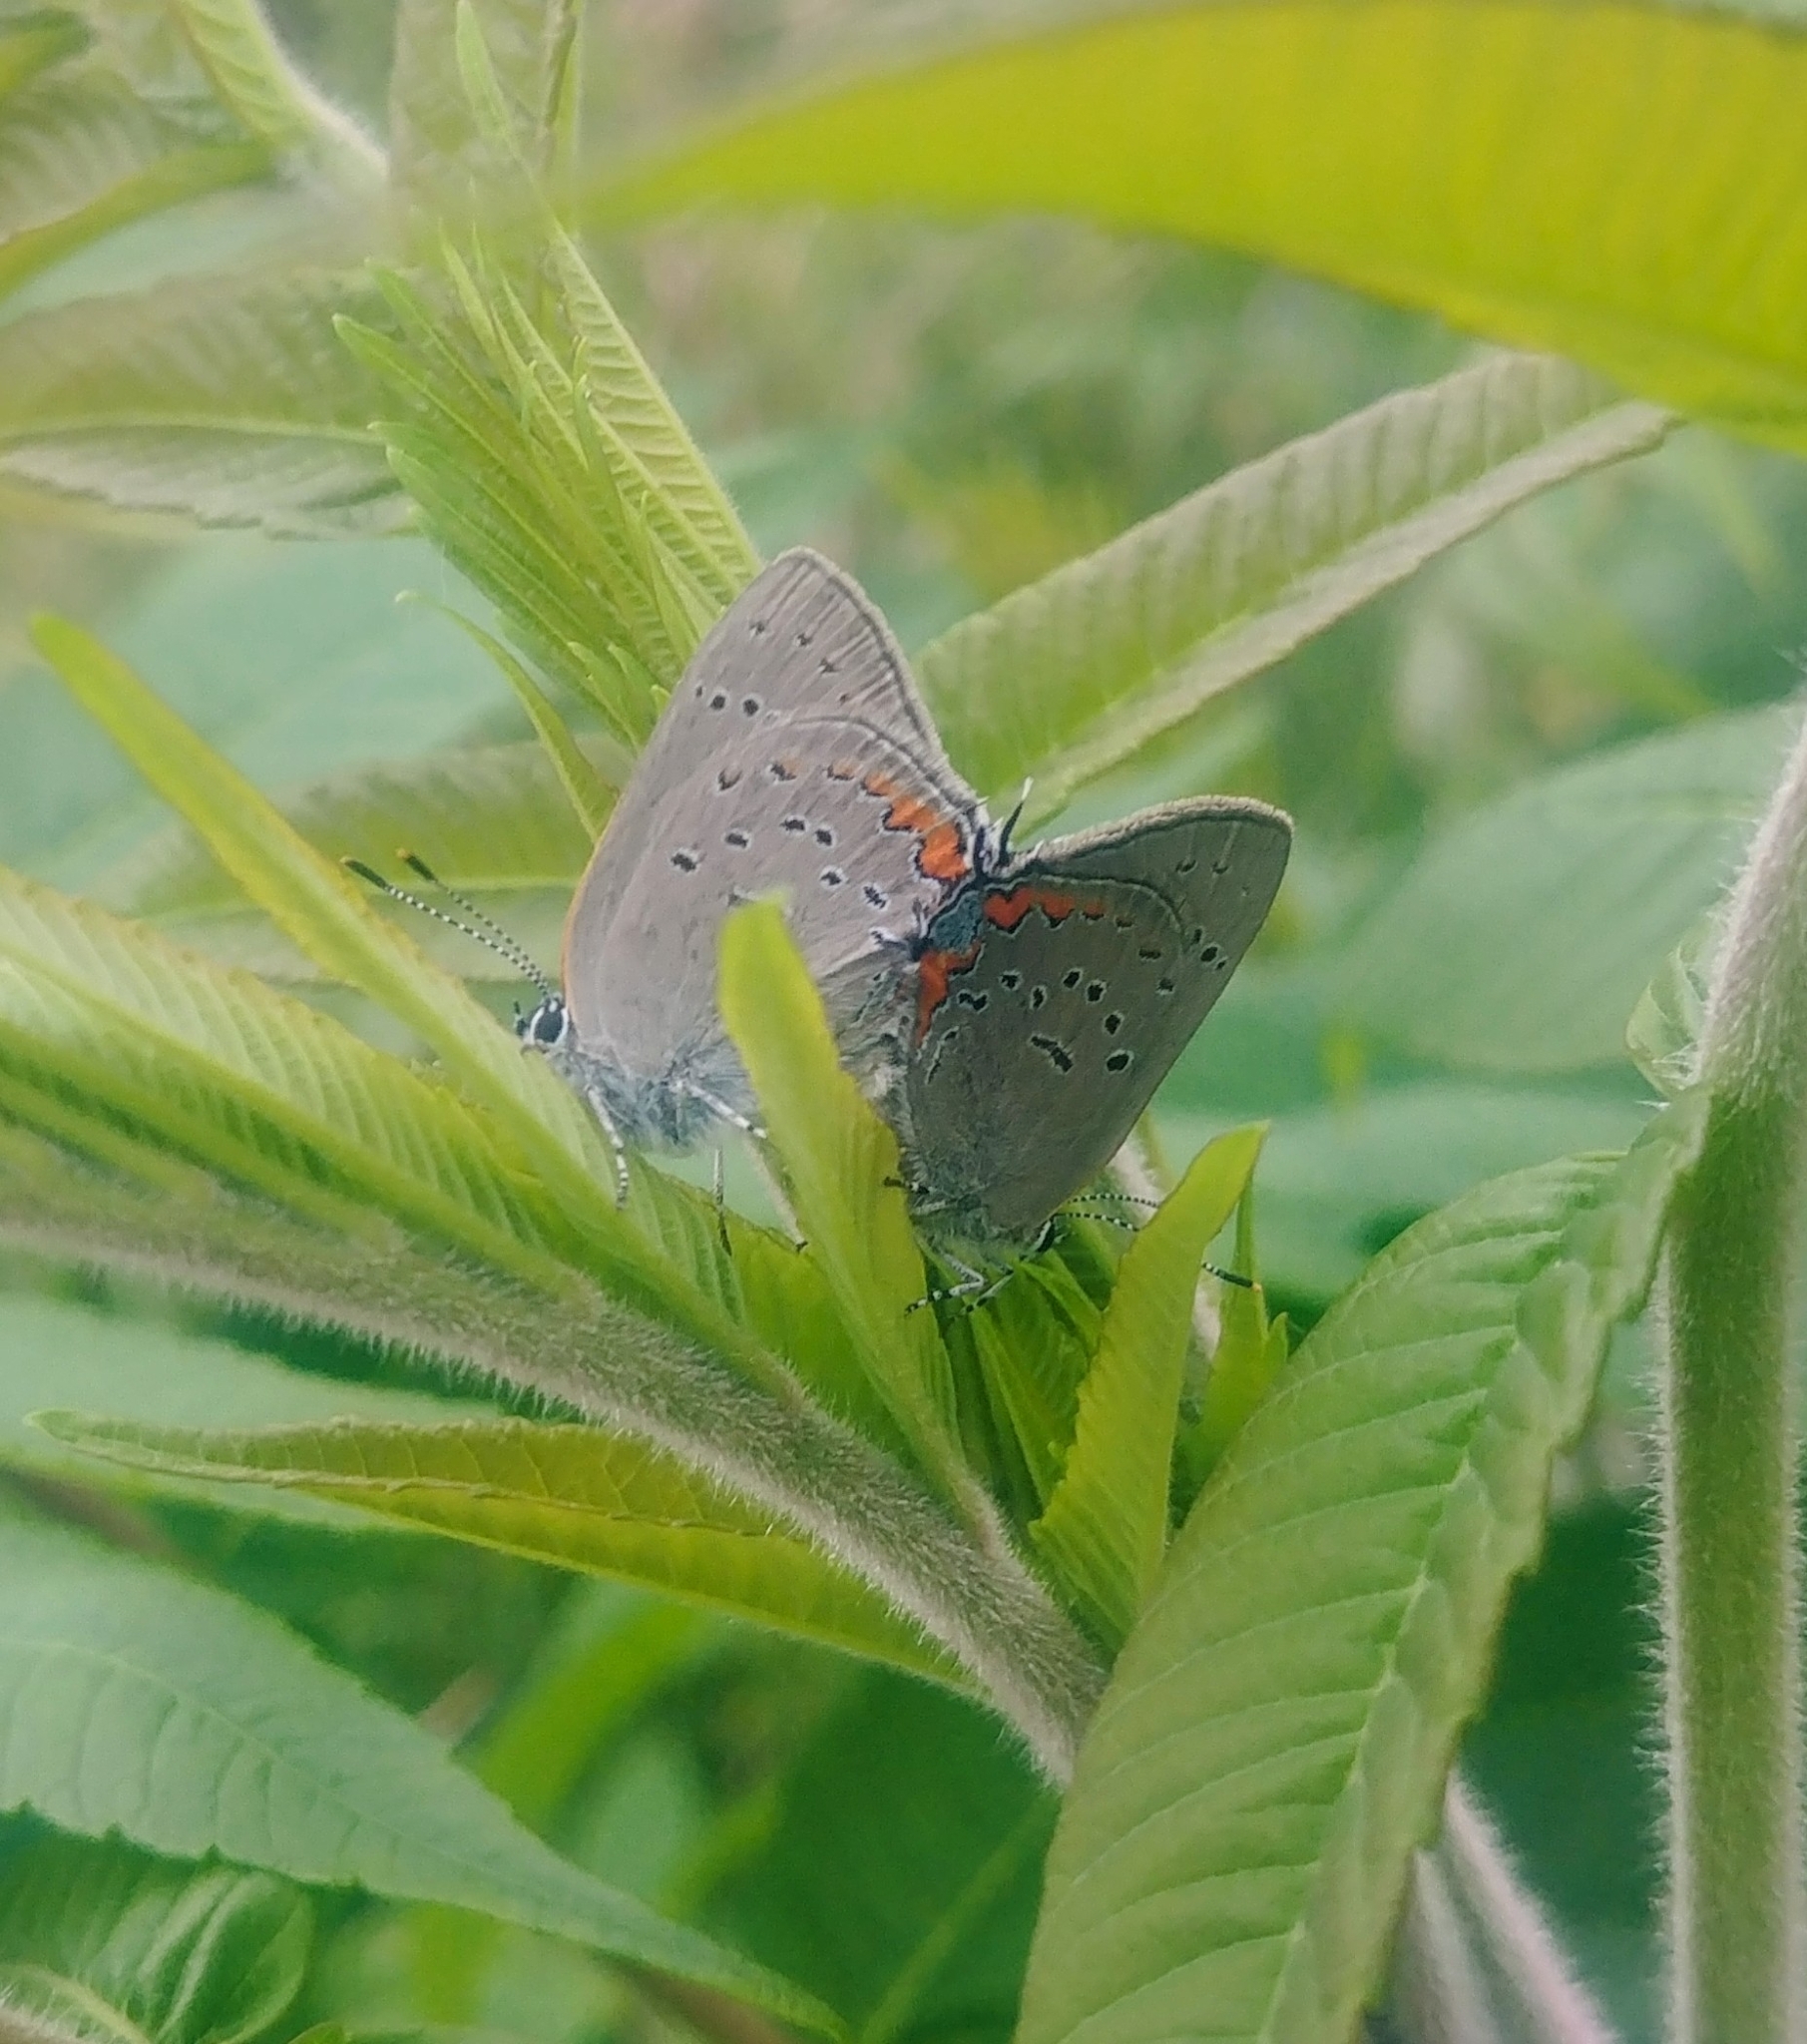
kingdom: Animalia
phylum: Arthropoda
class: Insecta
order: Lepidoptera
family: Lycaenidae
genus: Strymon
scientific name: Strymon acadica
